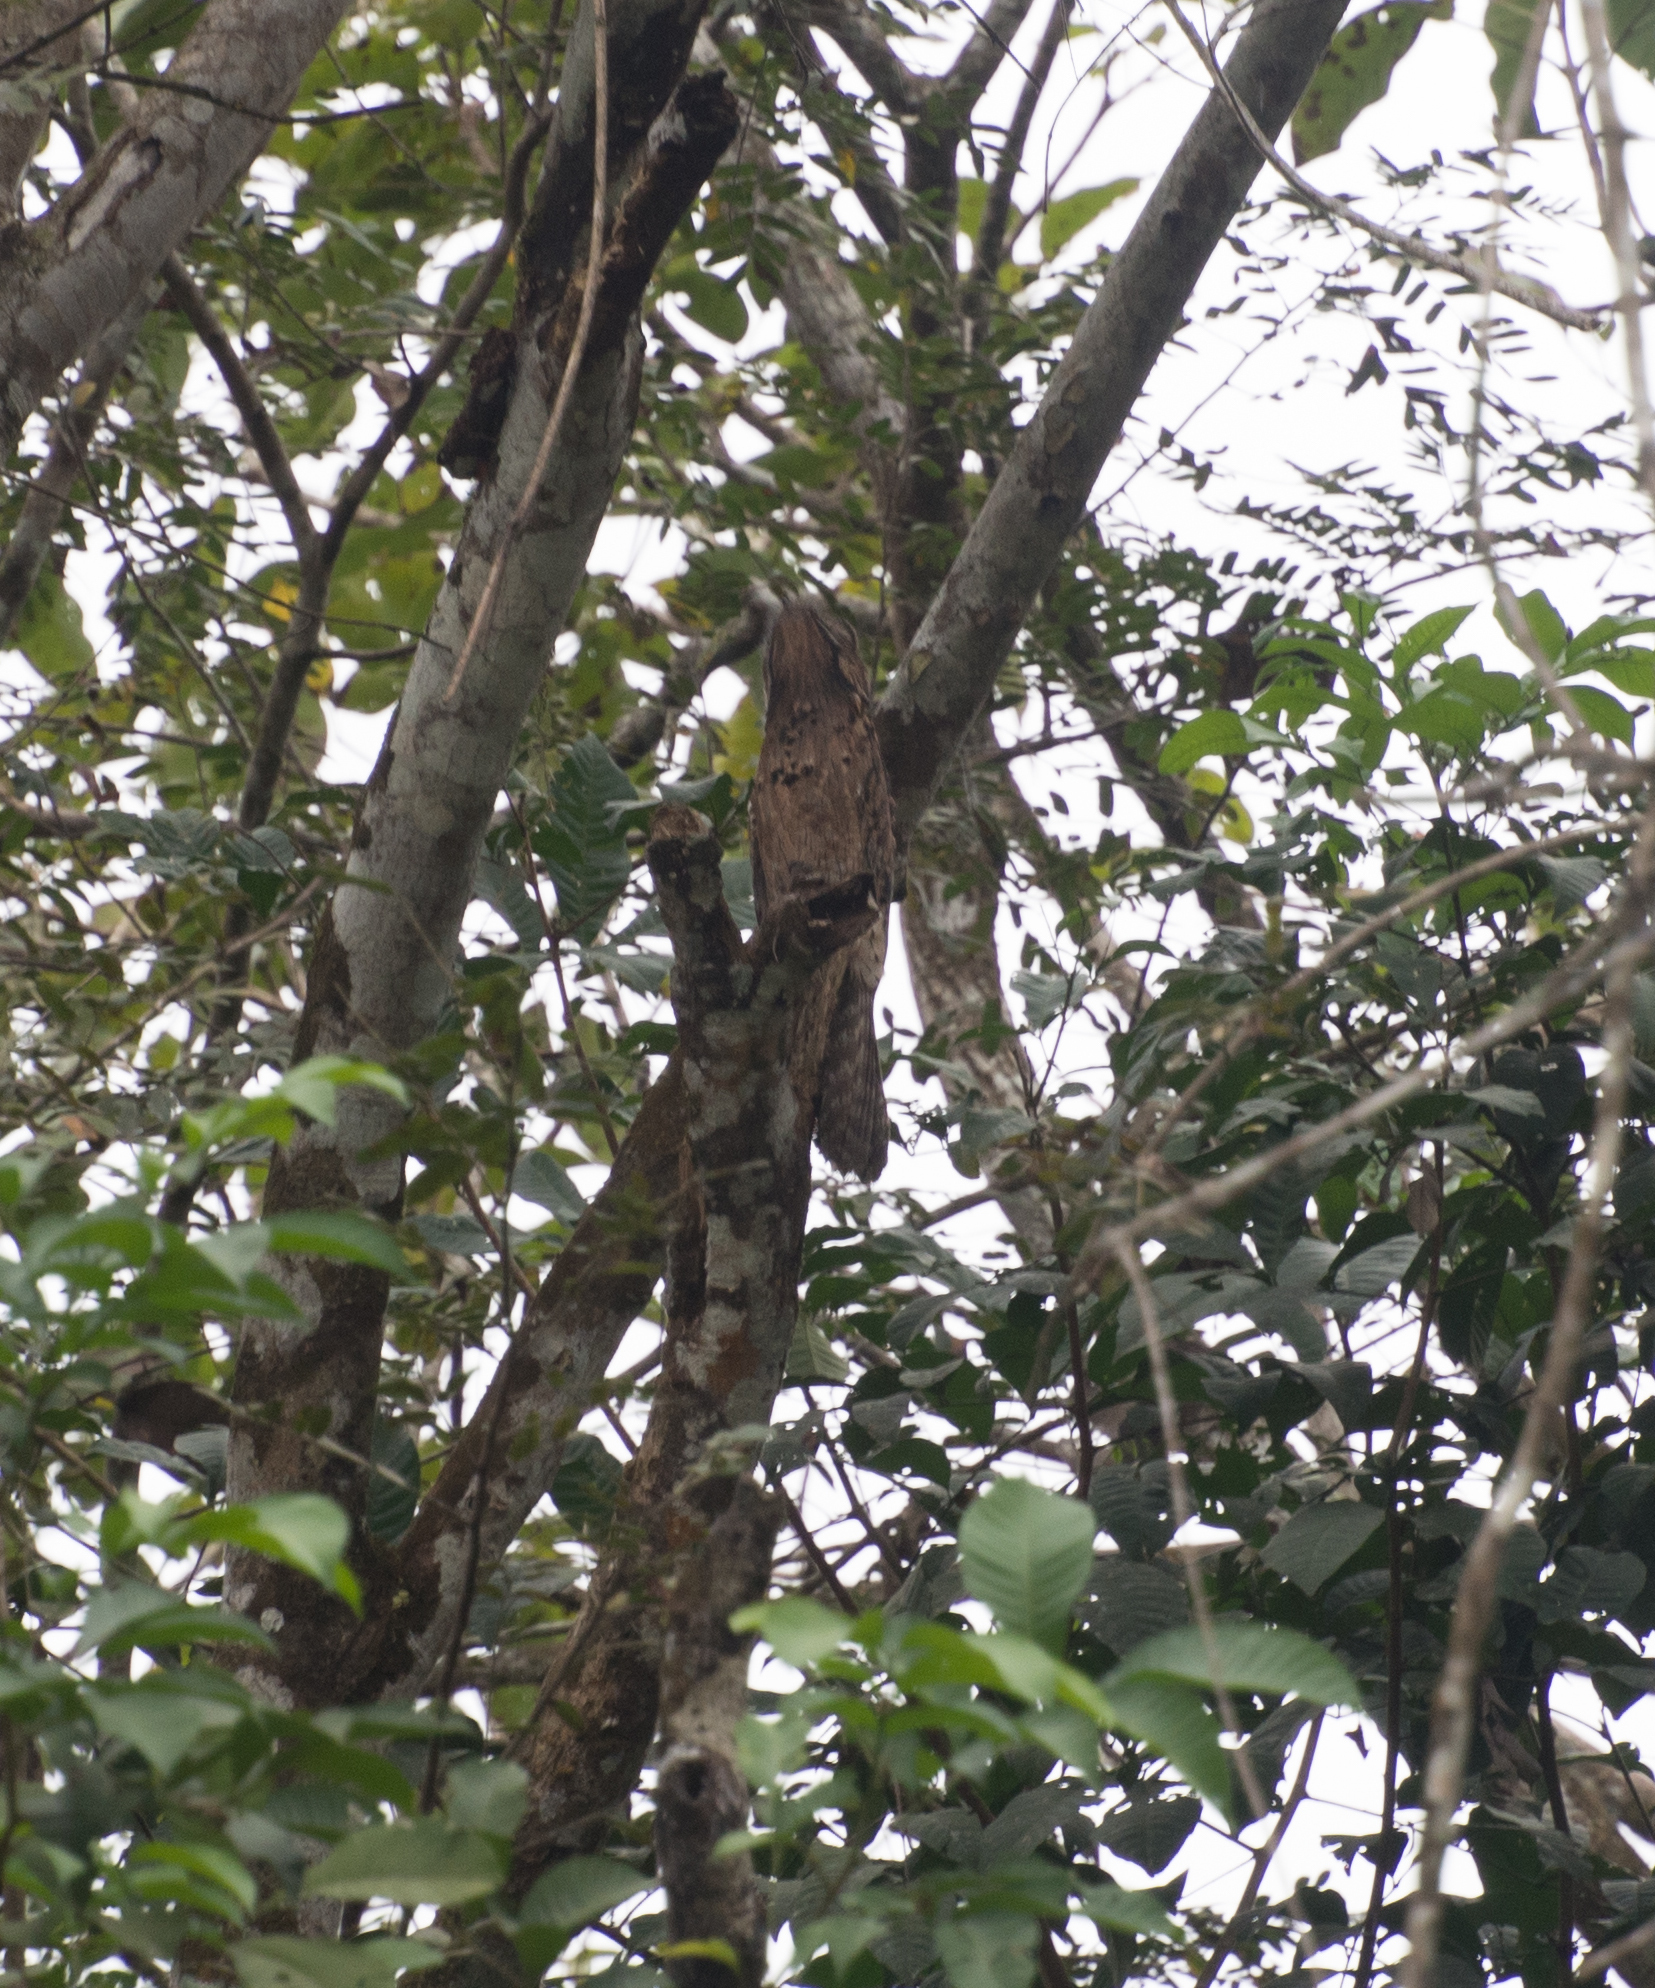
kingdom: Animalia
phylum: Chordata
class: Aves
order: Nyctibiiformes
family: Nyctibiidae
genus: Nyctibius
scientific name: Nyctibius griseus
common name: Common potoo
